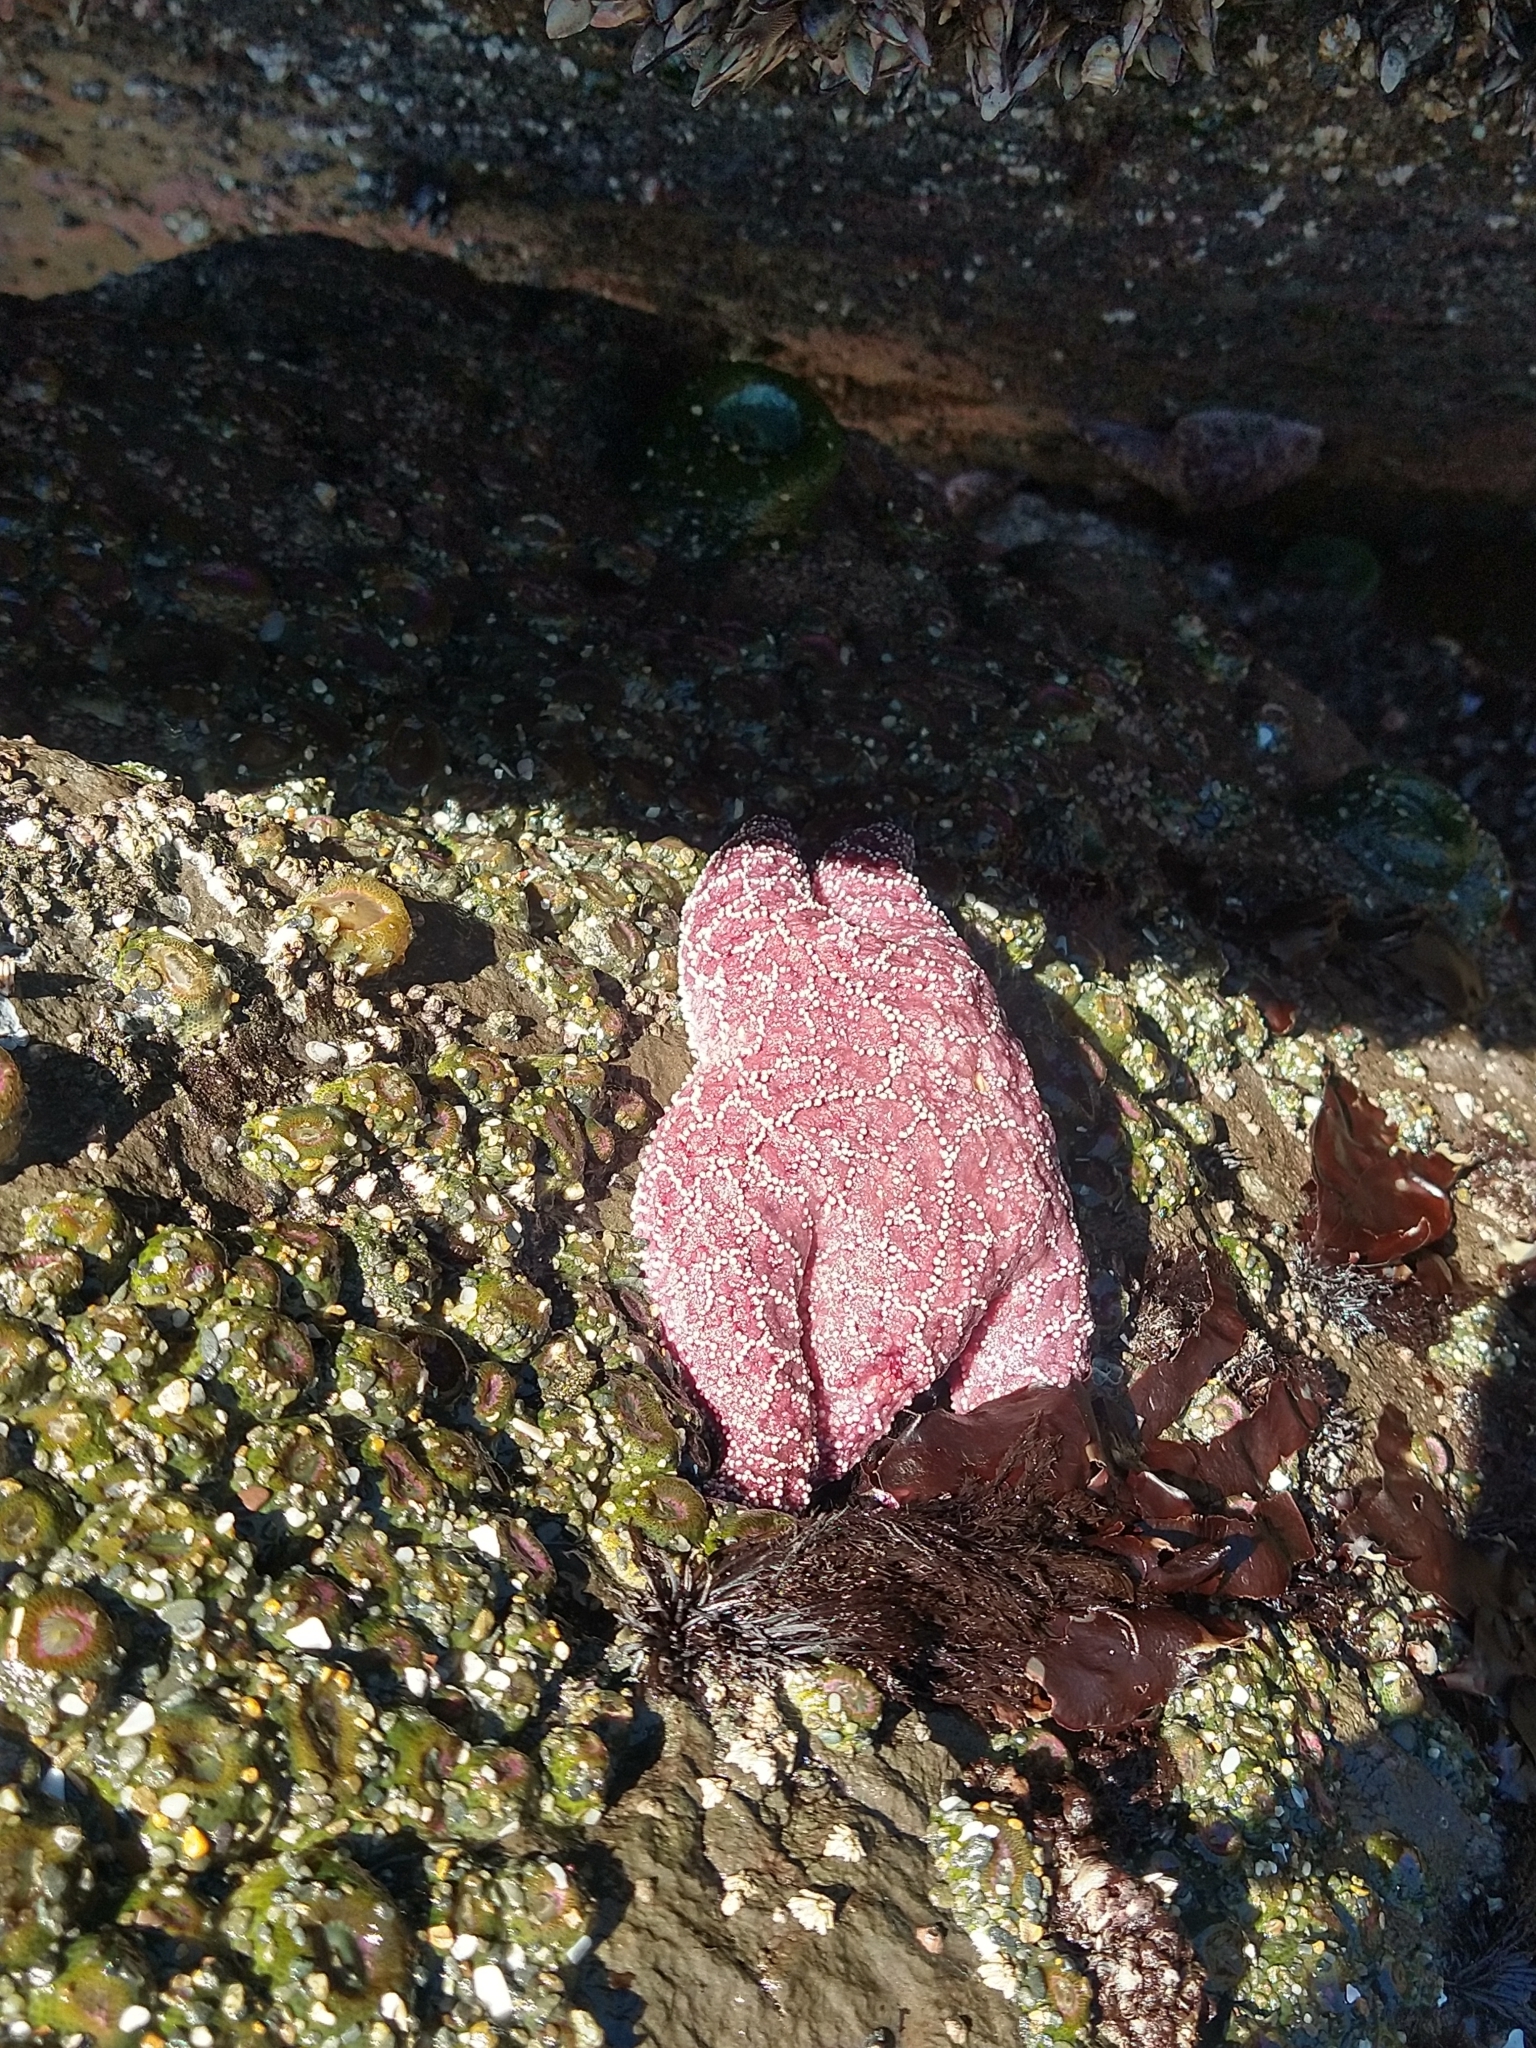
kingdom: Animalia
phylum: Echinodermata
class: Asteroidea
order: Forcipulatida
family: Asteriidae
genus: Pisaster
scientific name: Pisaster ochraceus
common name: Ochre stars
